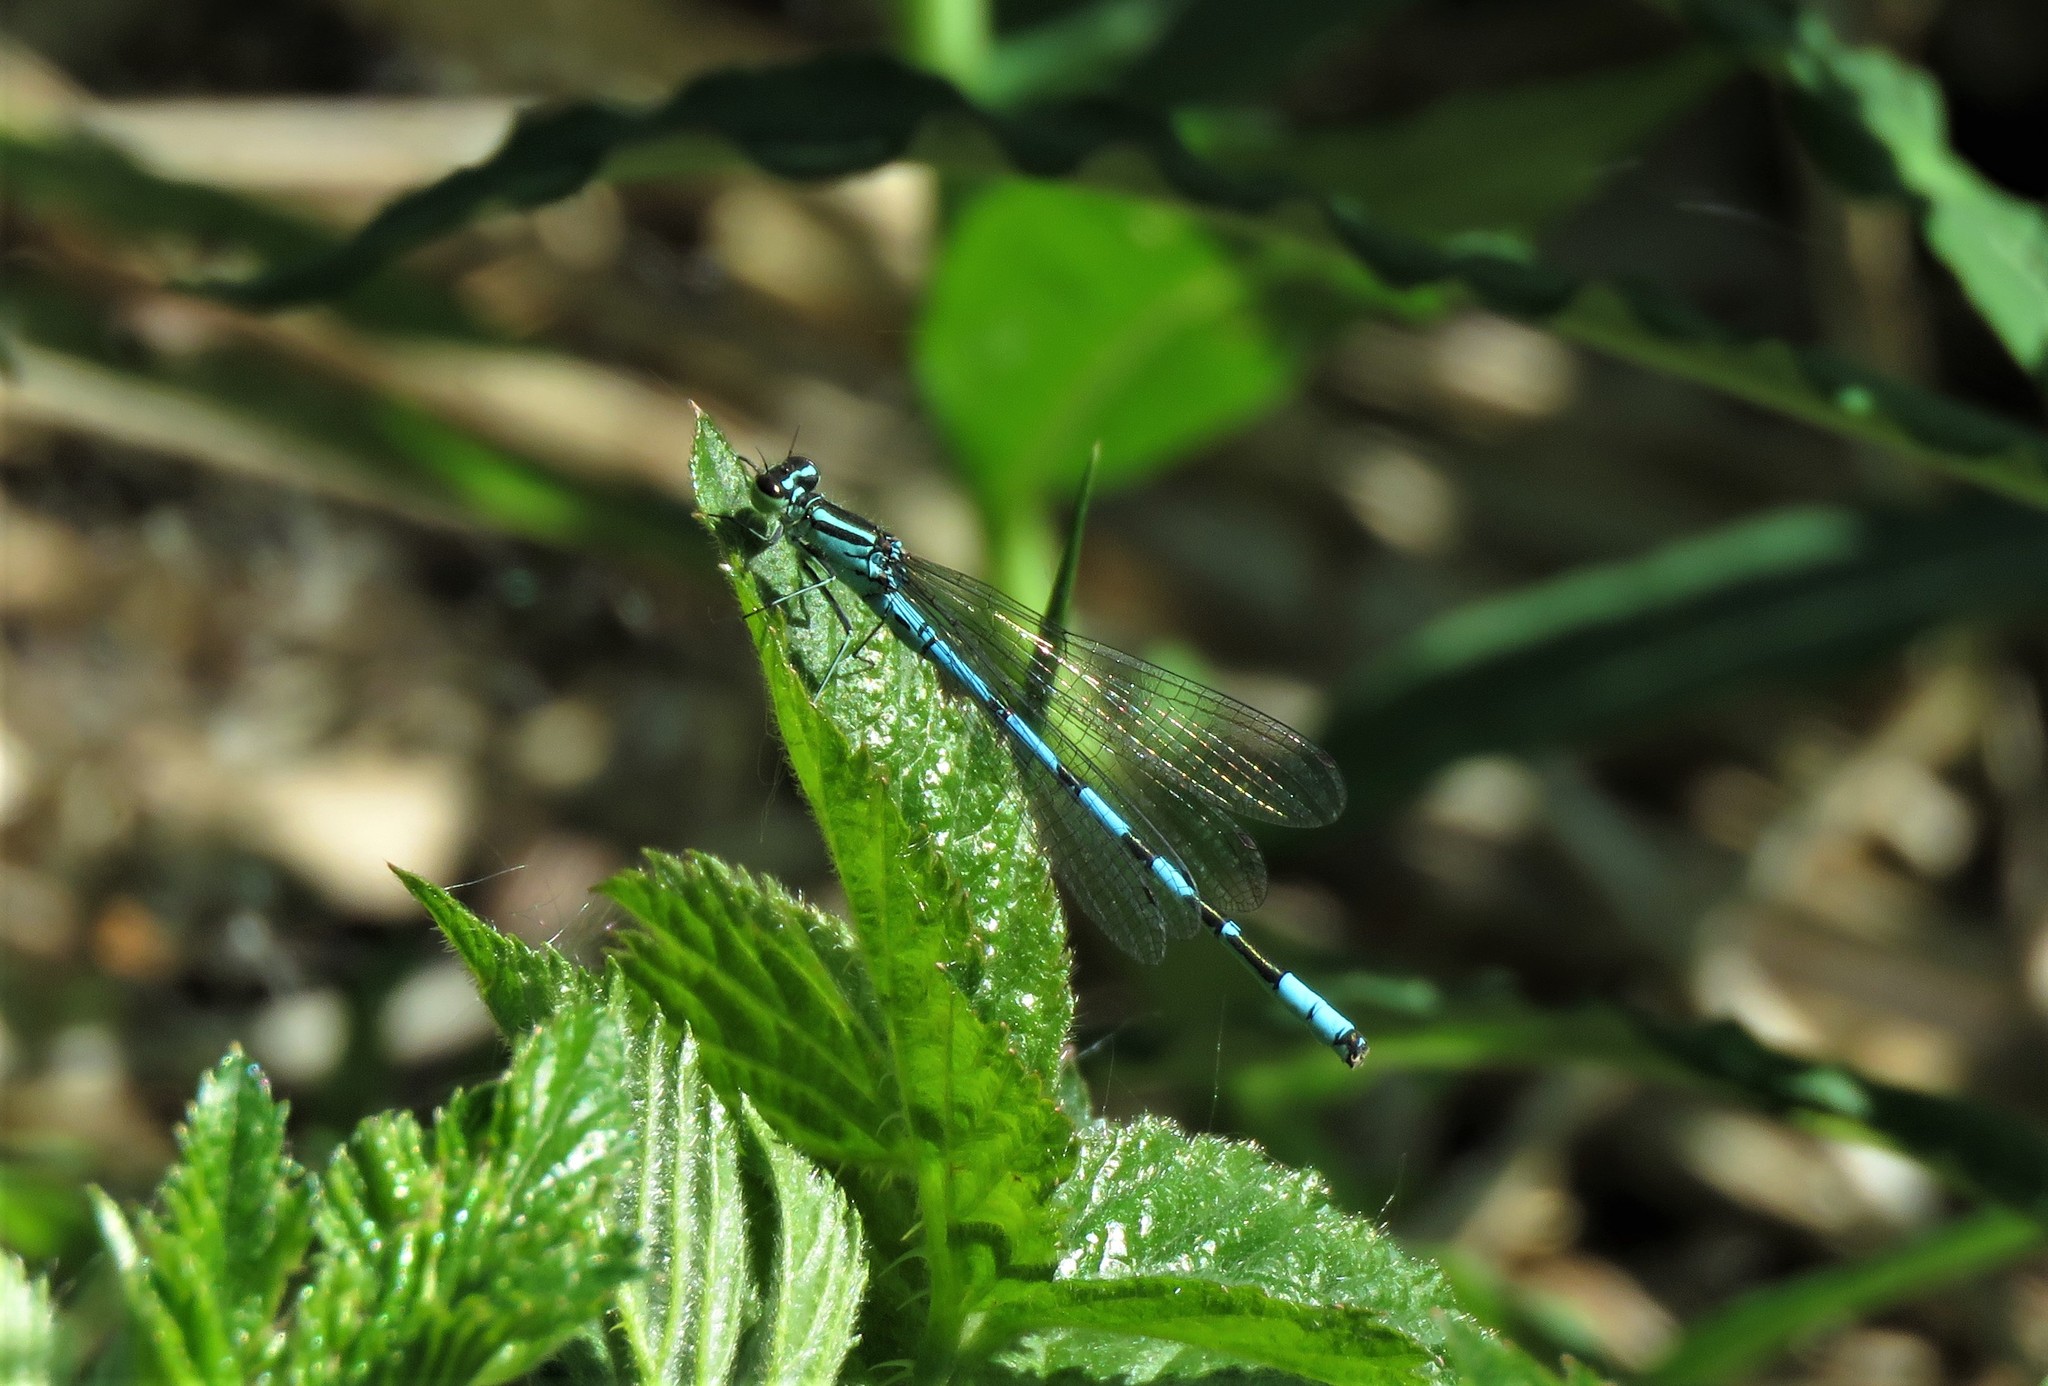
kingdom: Animalia
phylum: Arthropoda
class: Insecta
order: Odonata
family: Coenagrionidae
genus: Coenagrion
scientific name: Coenagrion hastulatum
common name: Spearhead bluet
